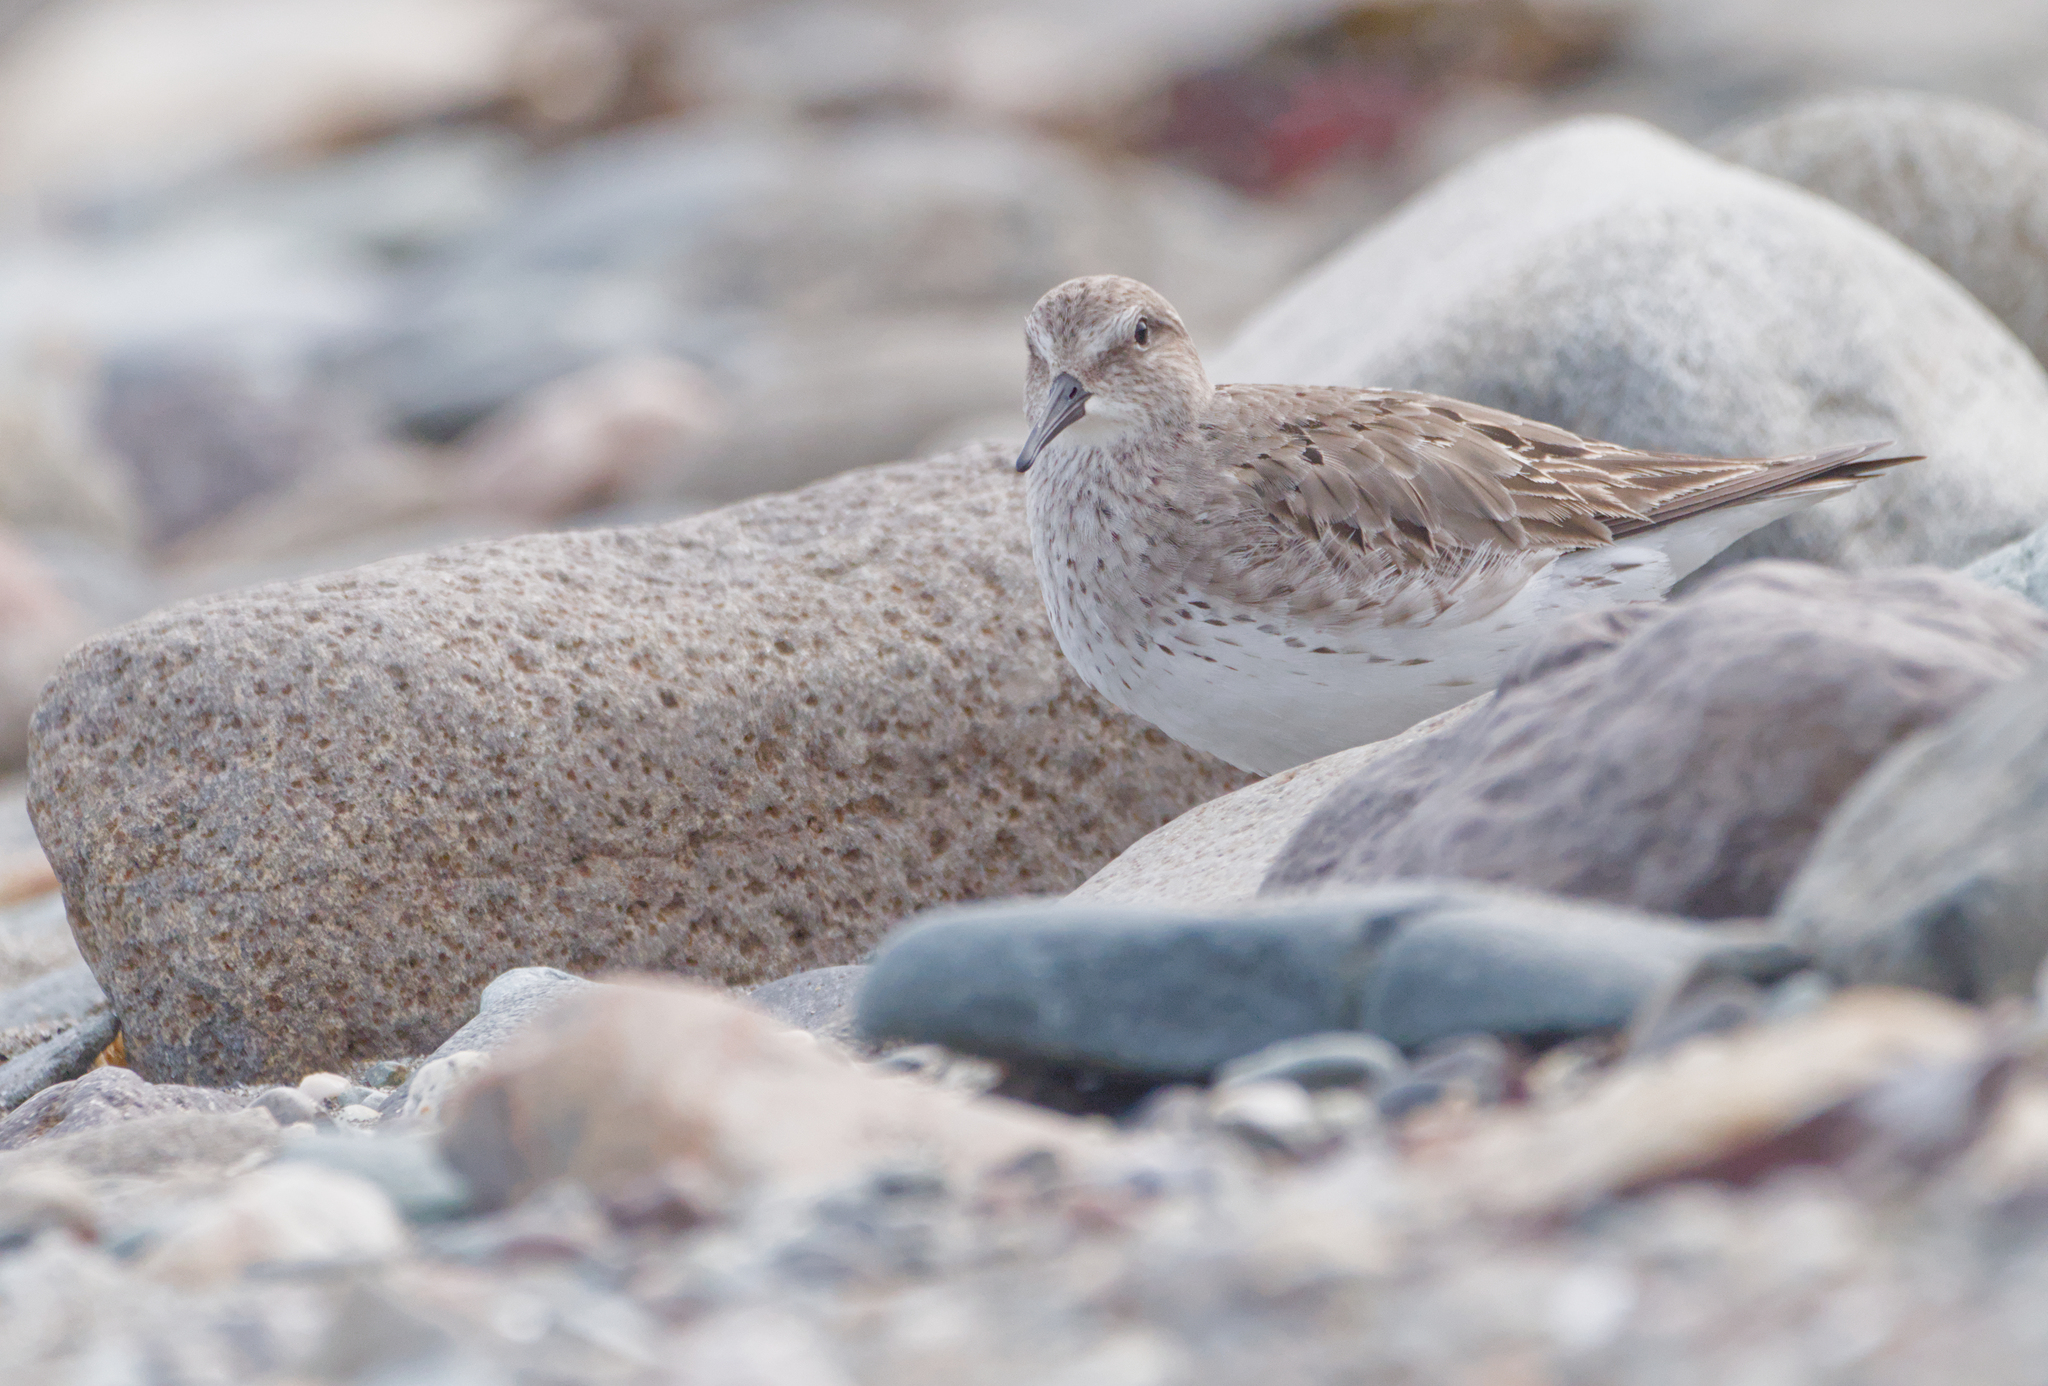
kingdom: Animalia
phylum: Chordata
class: Aves
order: Charadriiformes
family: Scolopacidae
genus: Calidris
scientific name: Calidris fuscicollis
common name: White-rumped sandpiper
